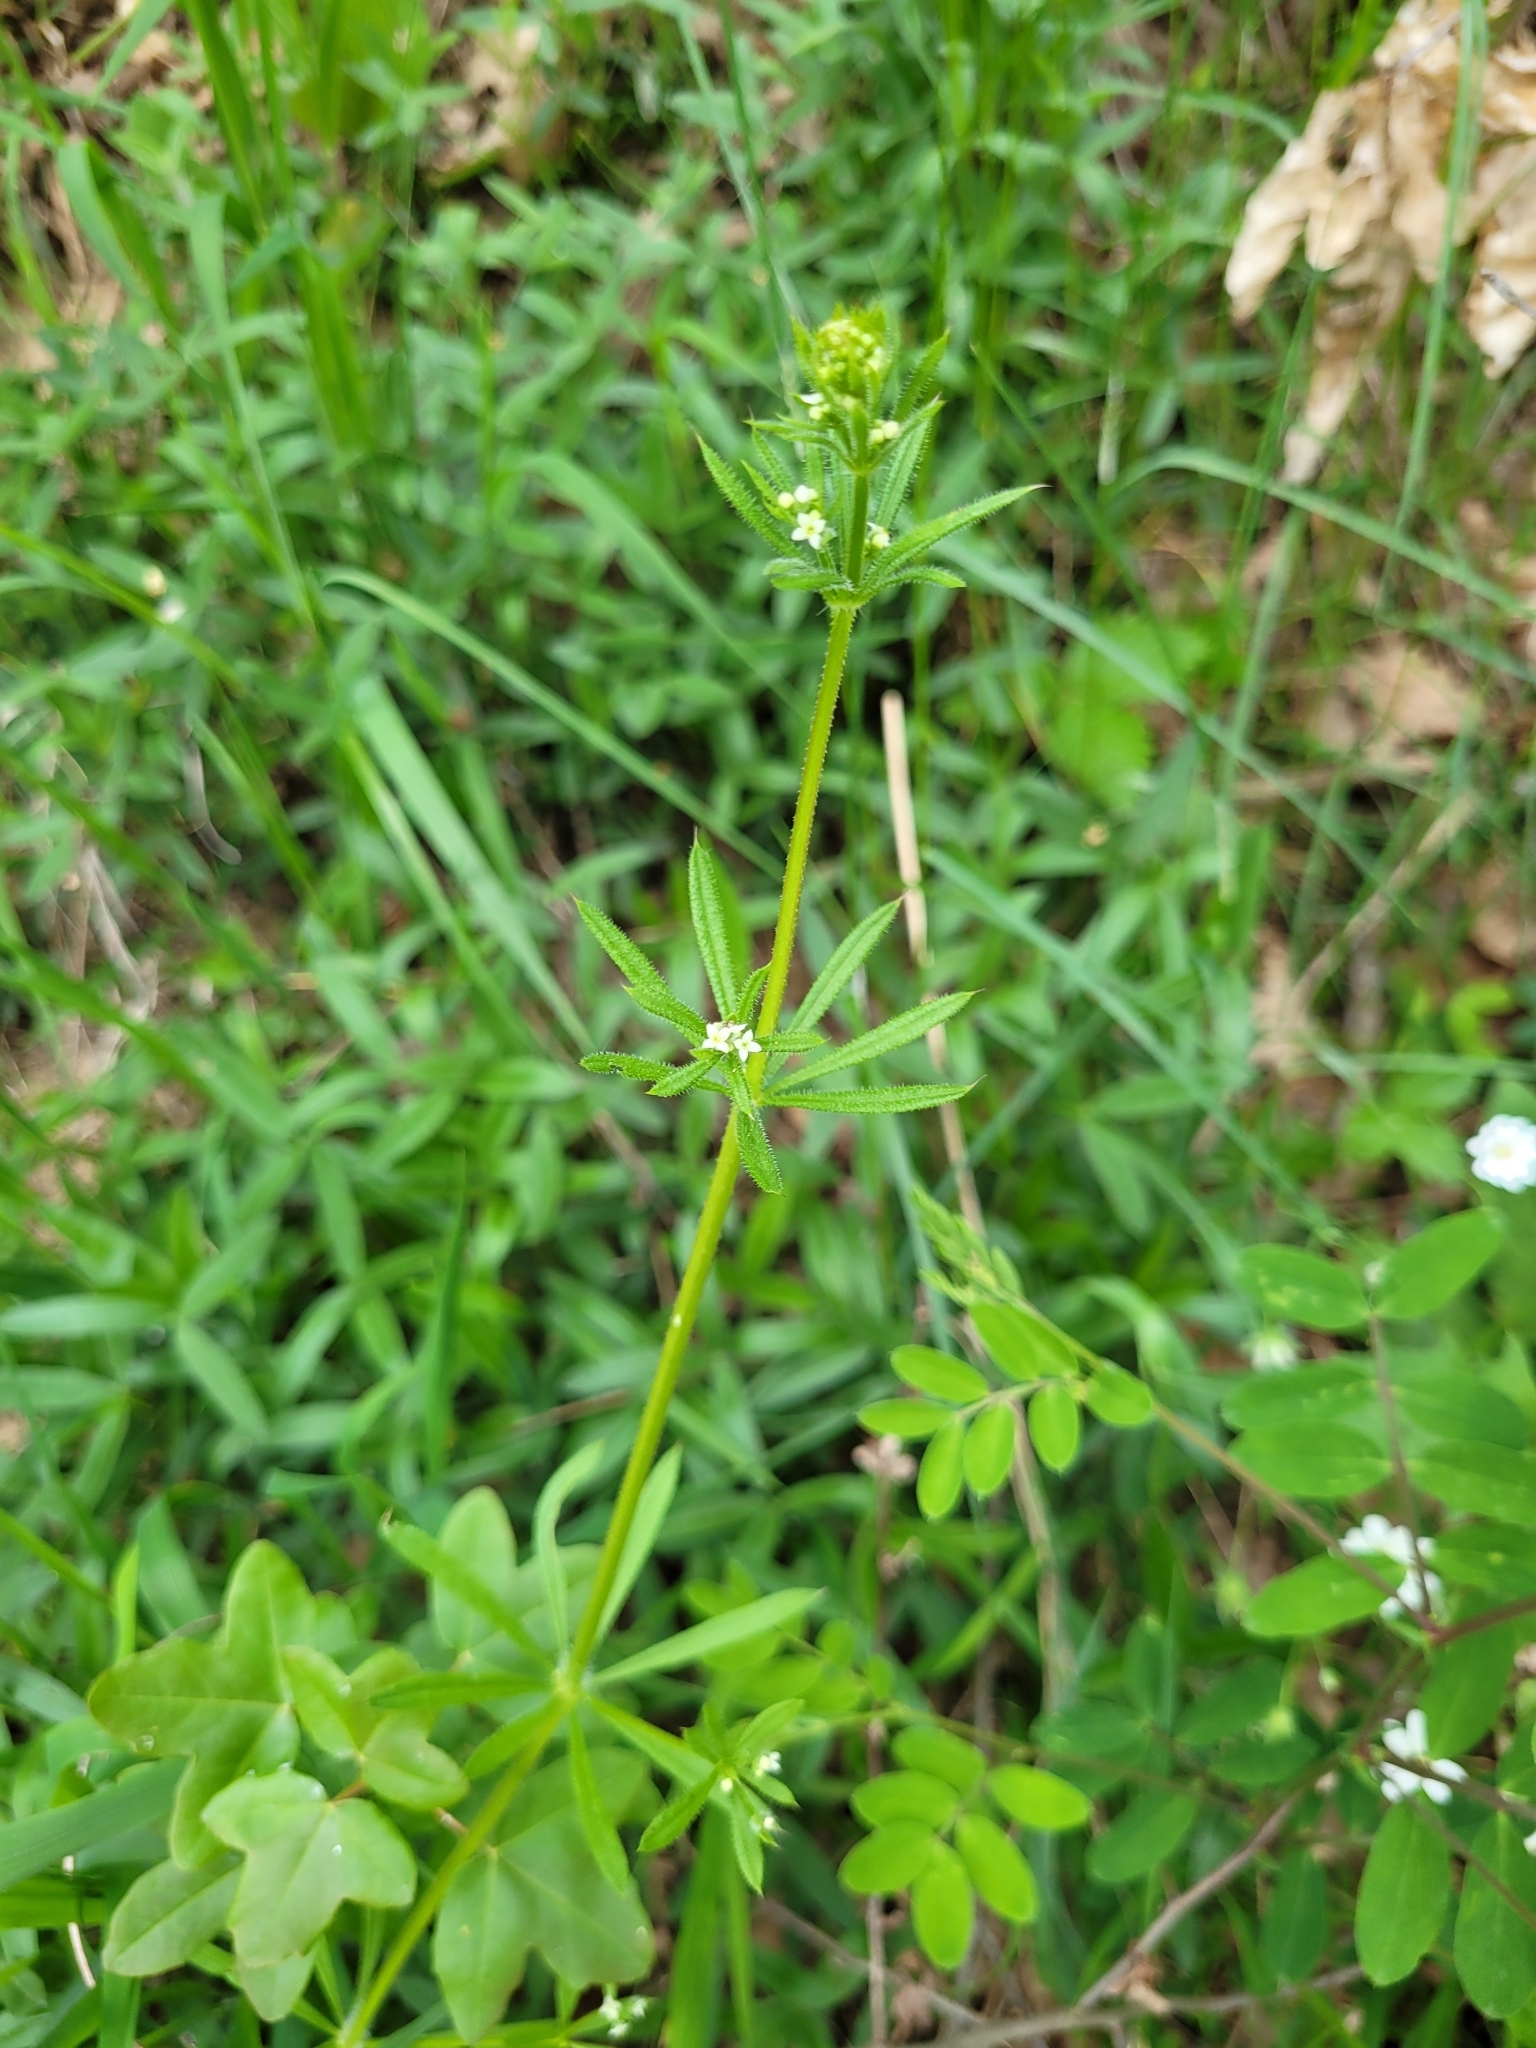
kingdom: Plantae
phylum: Tracheophyta
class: Magnoliopsida
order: Gentianales
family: Rubiaceae
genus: Galium
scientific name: Galium aparine
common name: Cleavers
